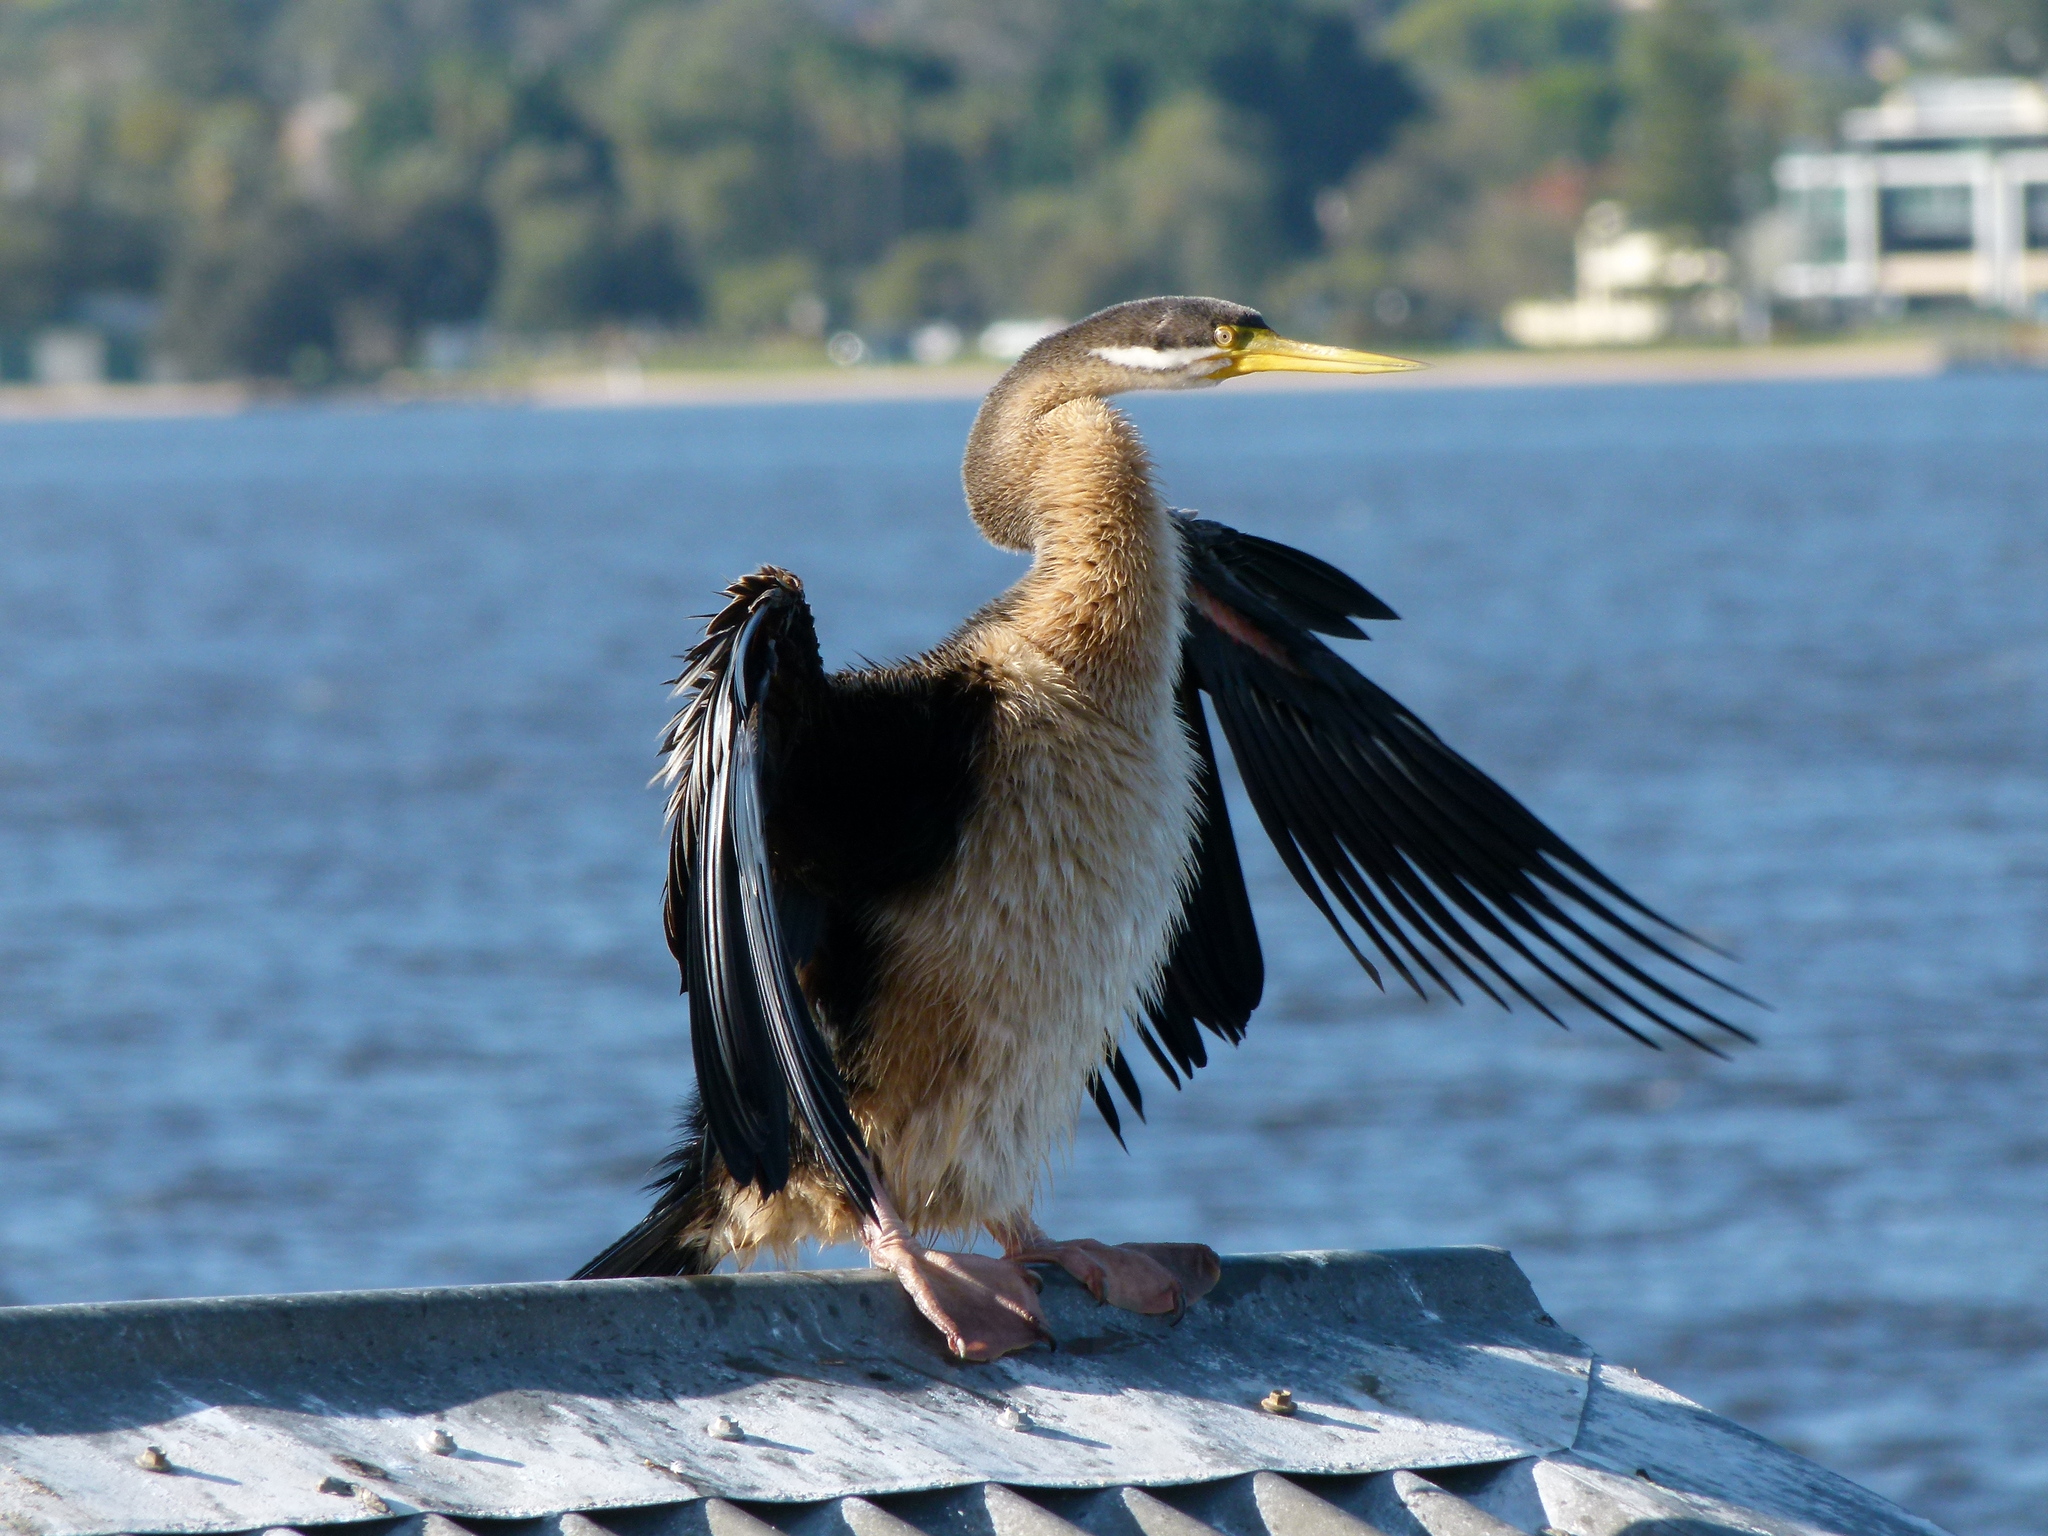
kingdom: Animalia
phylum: Chordata
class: Aves
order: Suliformes
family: Anhingidae
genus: Anhinga
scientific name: Anhinga novaehollandiae
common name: Australasian darter
